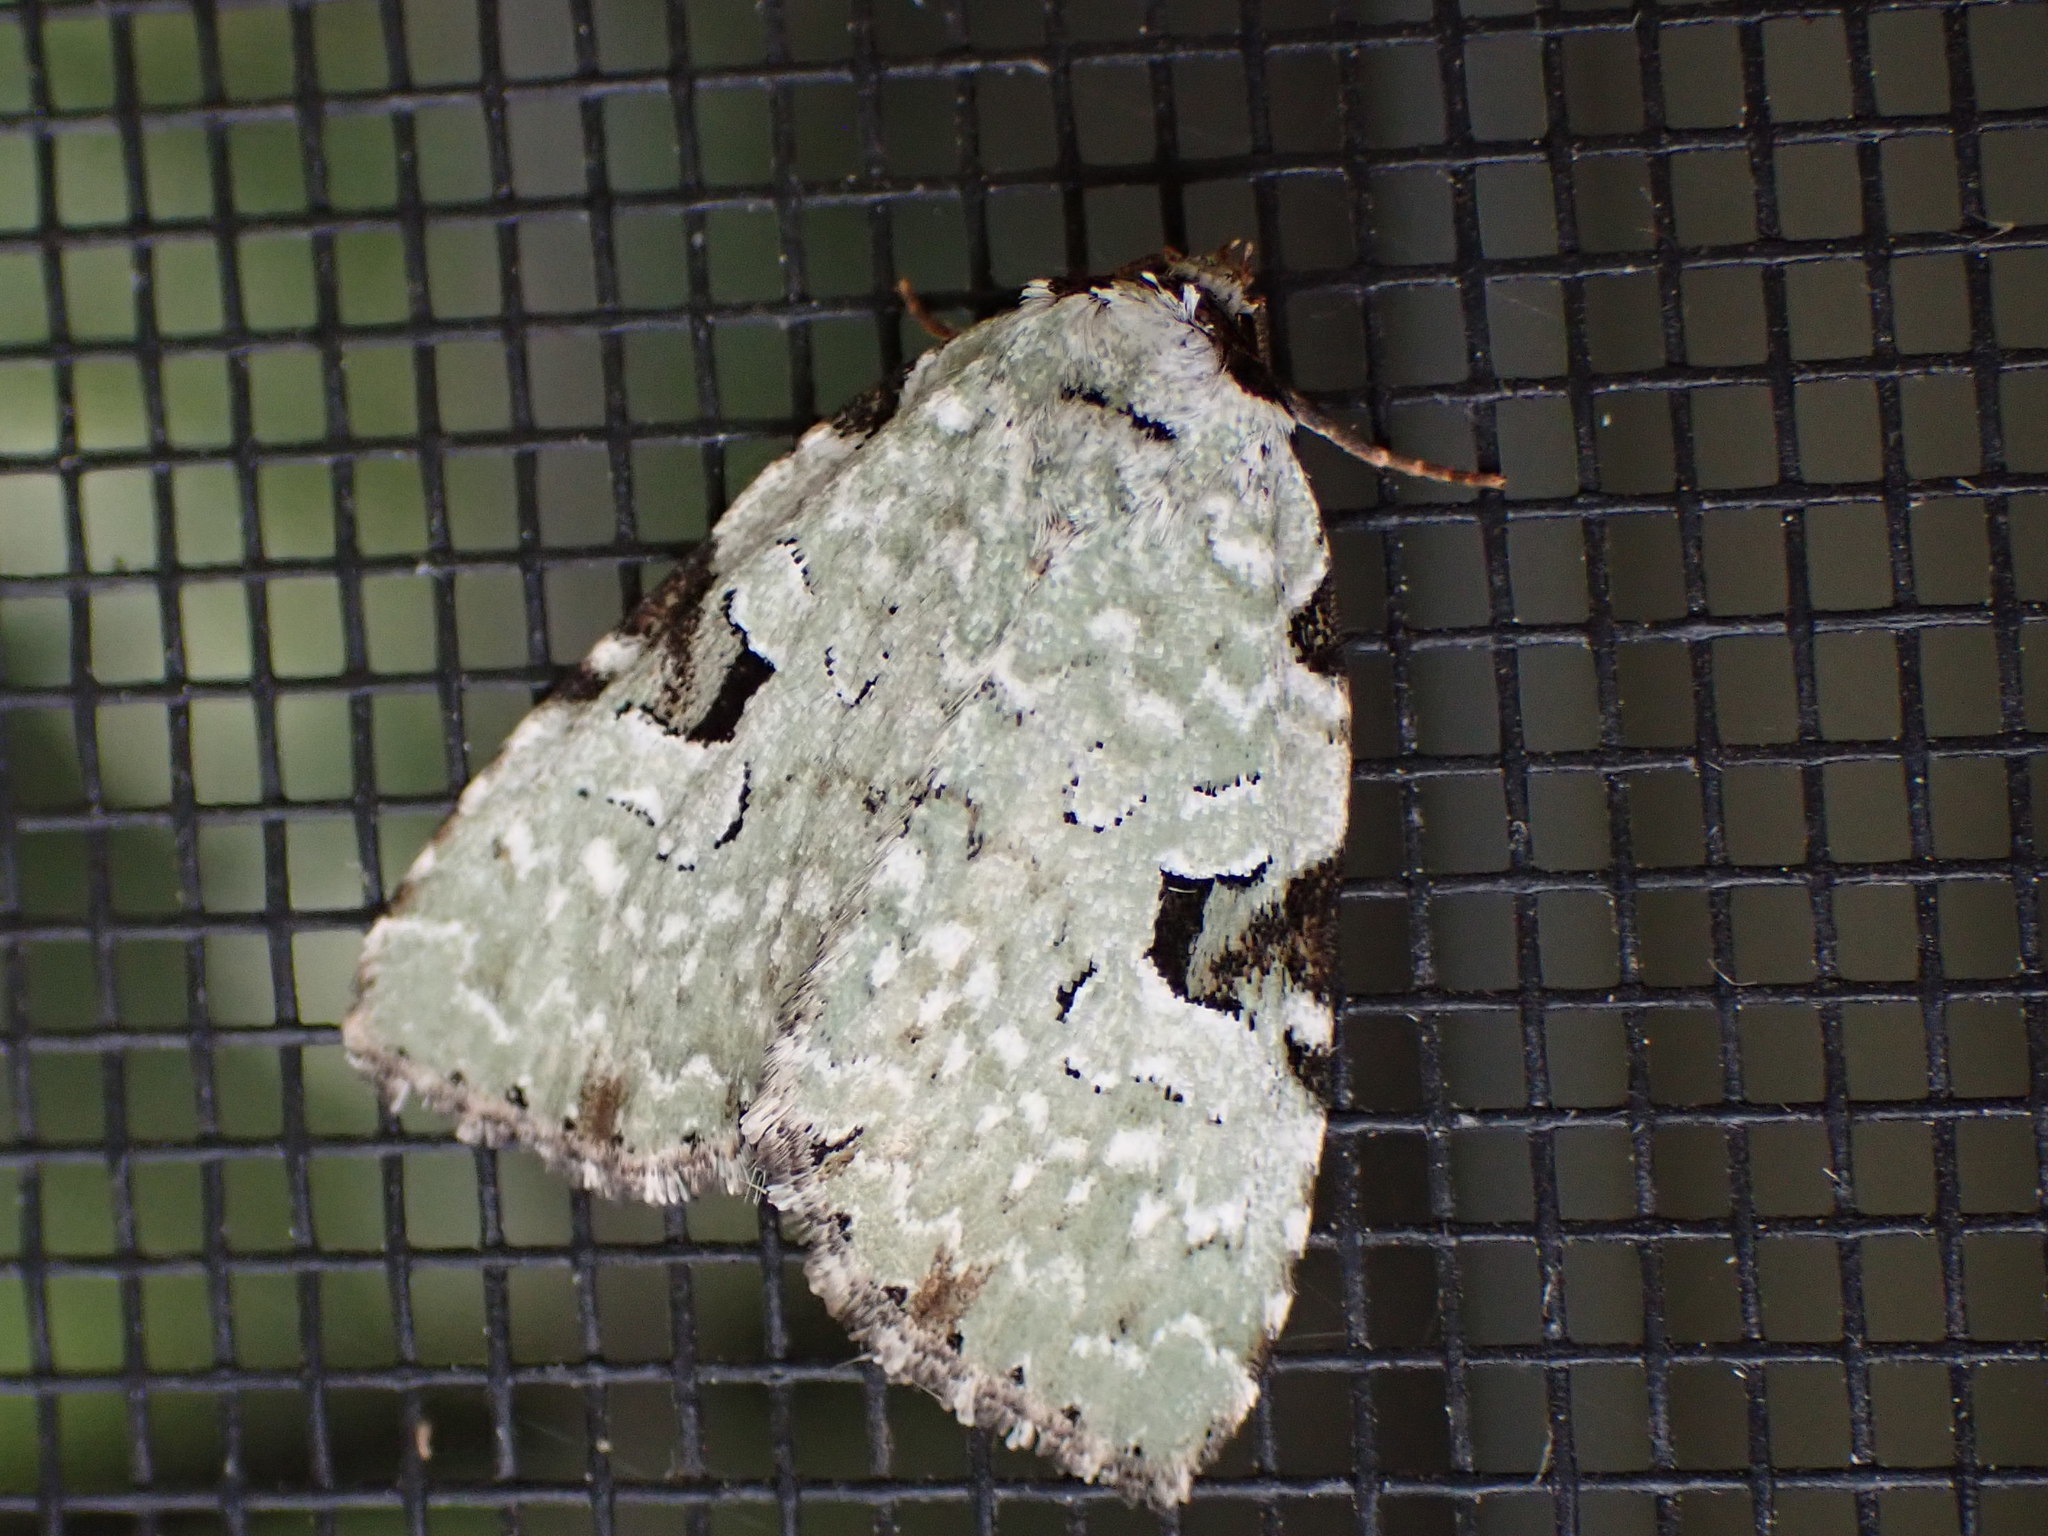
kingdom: Animalia
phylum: Arthropoda
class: Insecta
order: Lepidoptera
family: Noctuidae
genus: Leuconycta
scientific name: Leuconycta diphteroides
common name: Green leuconycta moth
